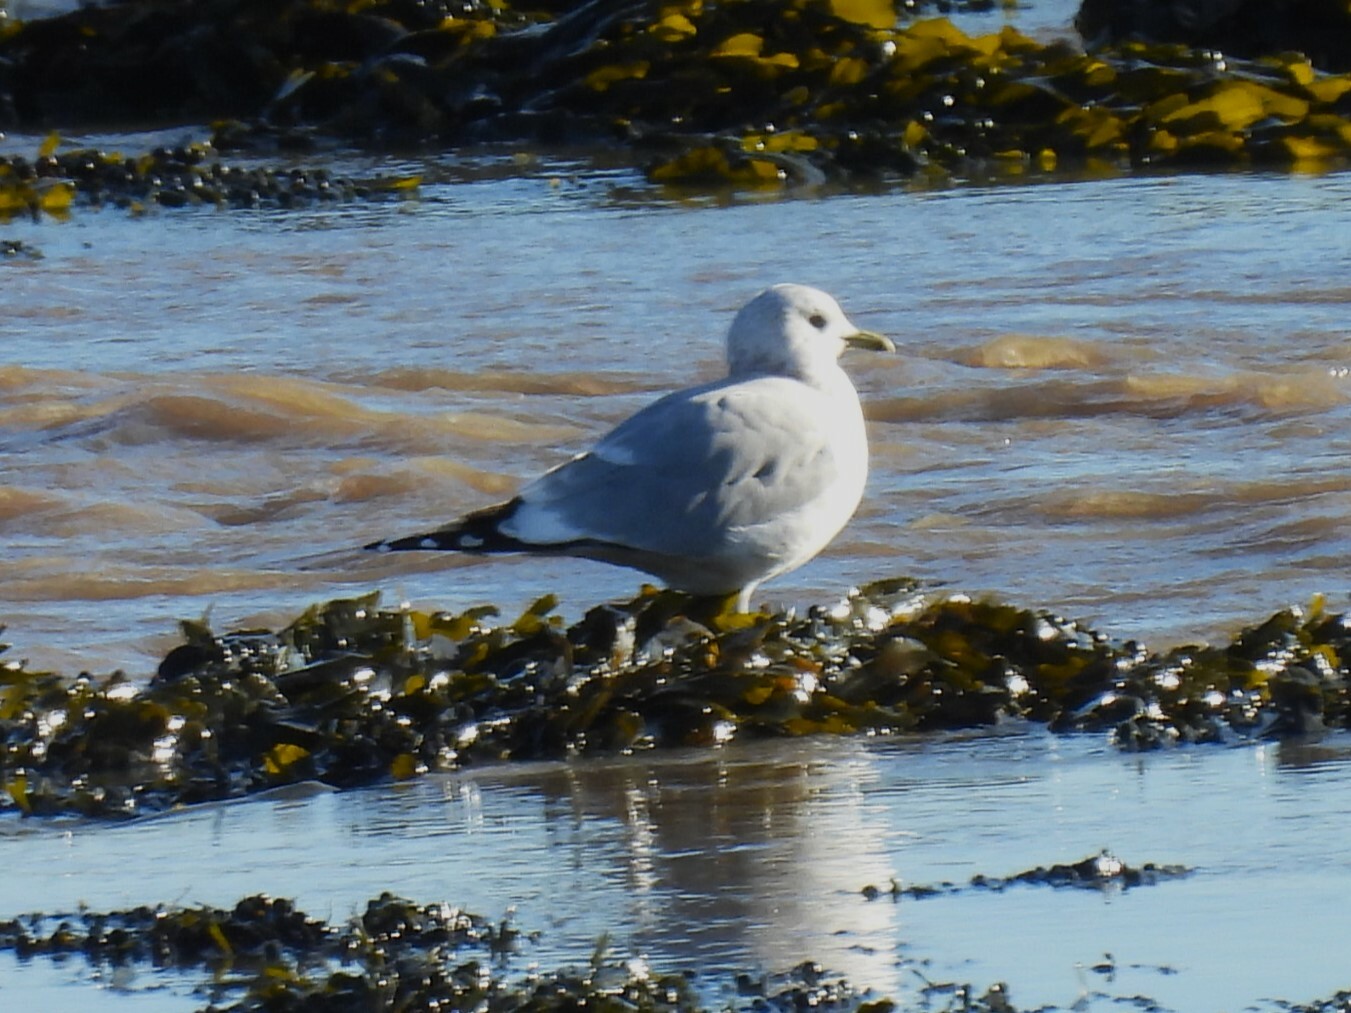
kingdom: Animalia
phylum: Chordata
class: Aves
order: Charadriiformes
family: Laridae
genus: Larus
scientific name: Larus canus
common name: Mew gull
